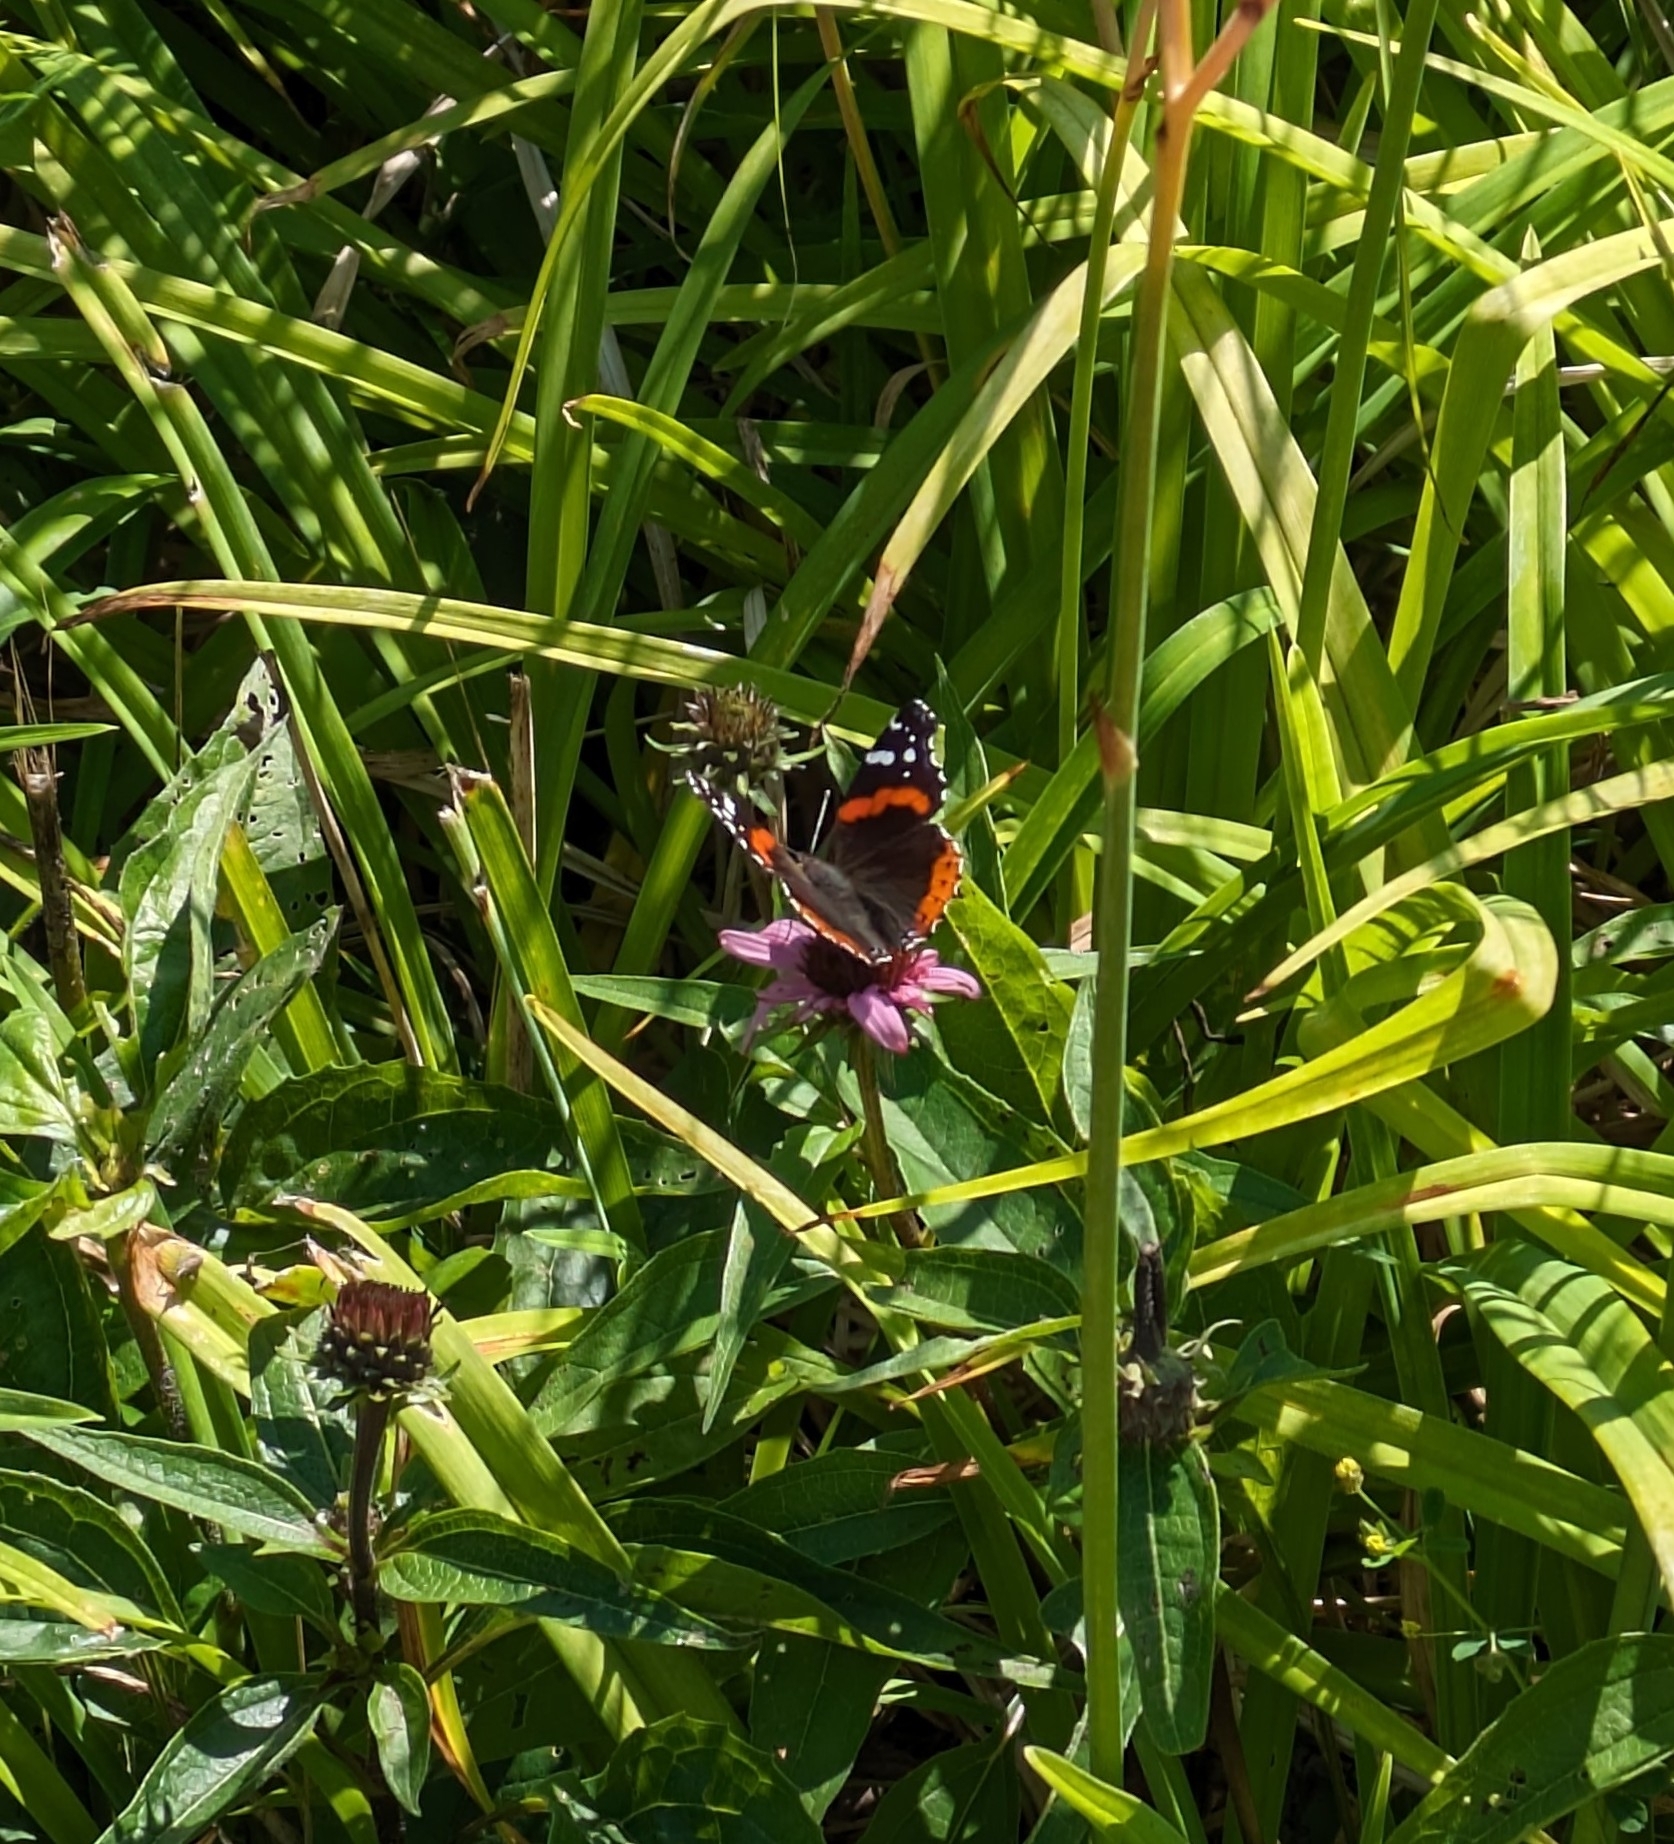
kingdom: Animalia
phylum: Arthropoda
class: Insecta
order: Lepidoptera
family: Nymphalidae
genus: Vanessa
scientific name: Vanessa atalanta
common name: Red admiral
